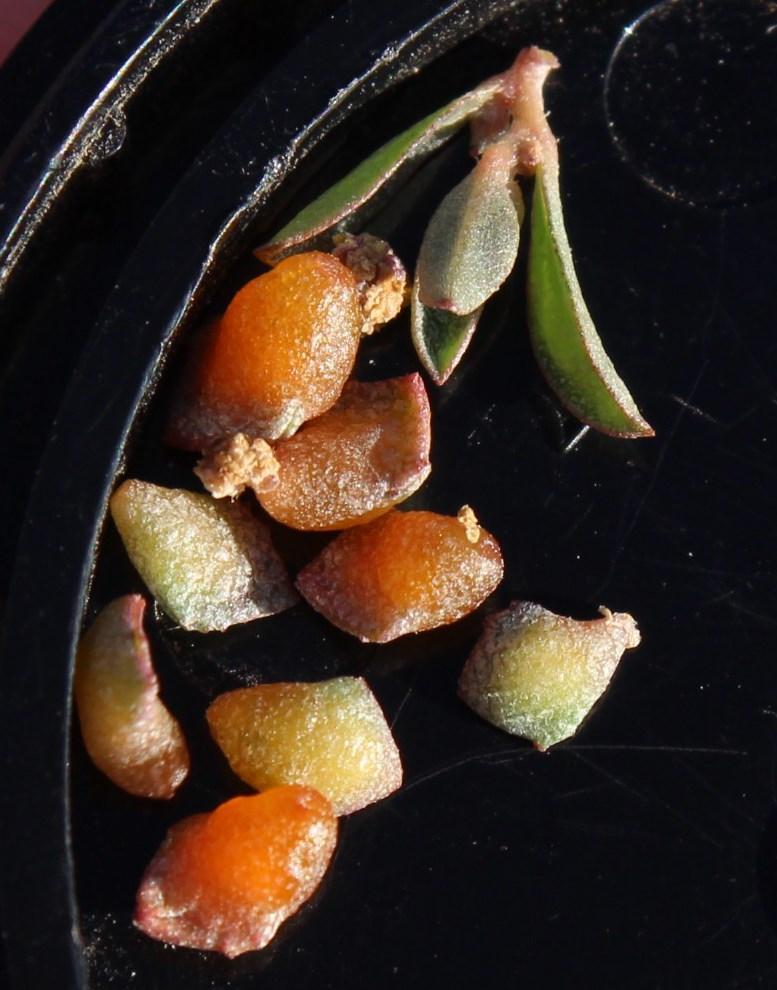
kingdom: Plantae
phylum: Tracheophyta
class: Magnoliopsida
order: Caryophyllales
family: Amaranthaceae
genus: Atriplex
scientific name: Atriplex semibaccata
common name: Australian saltbush
